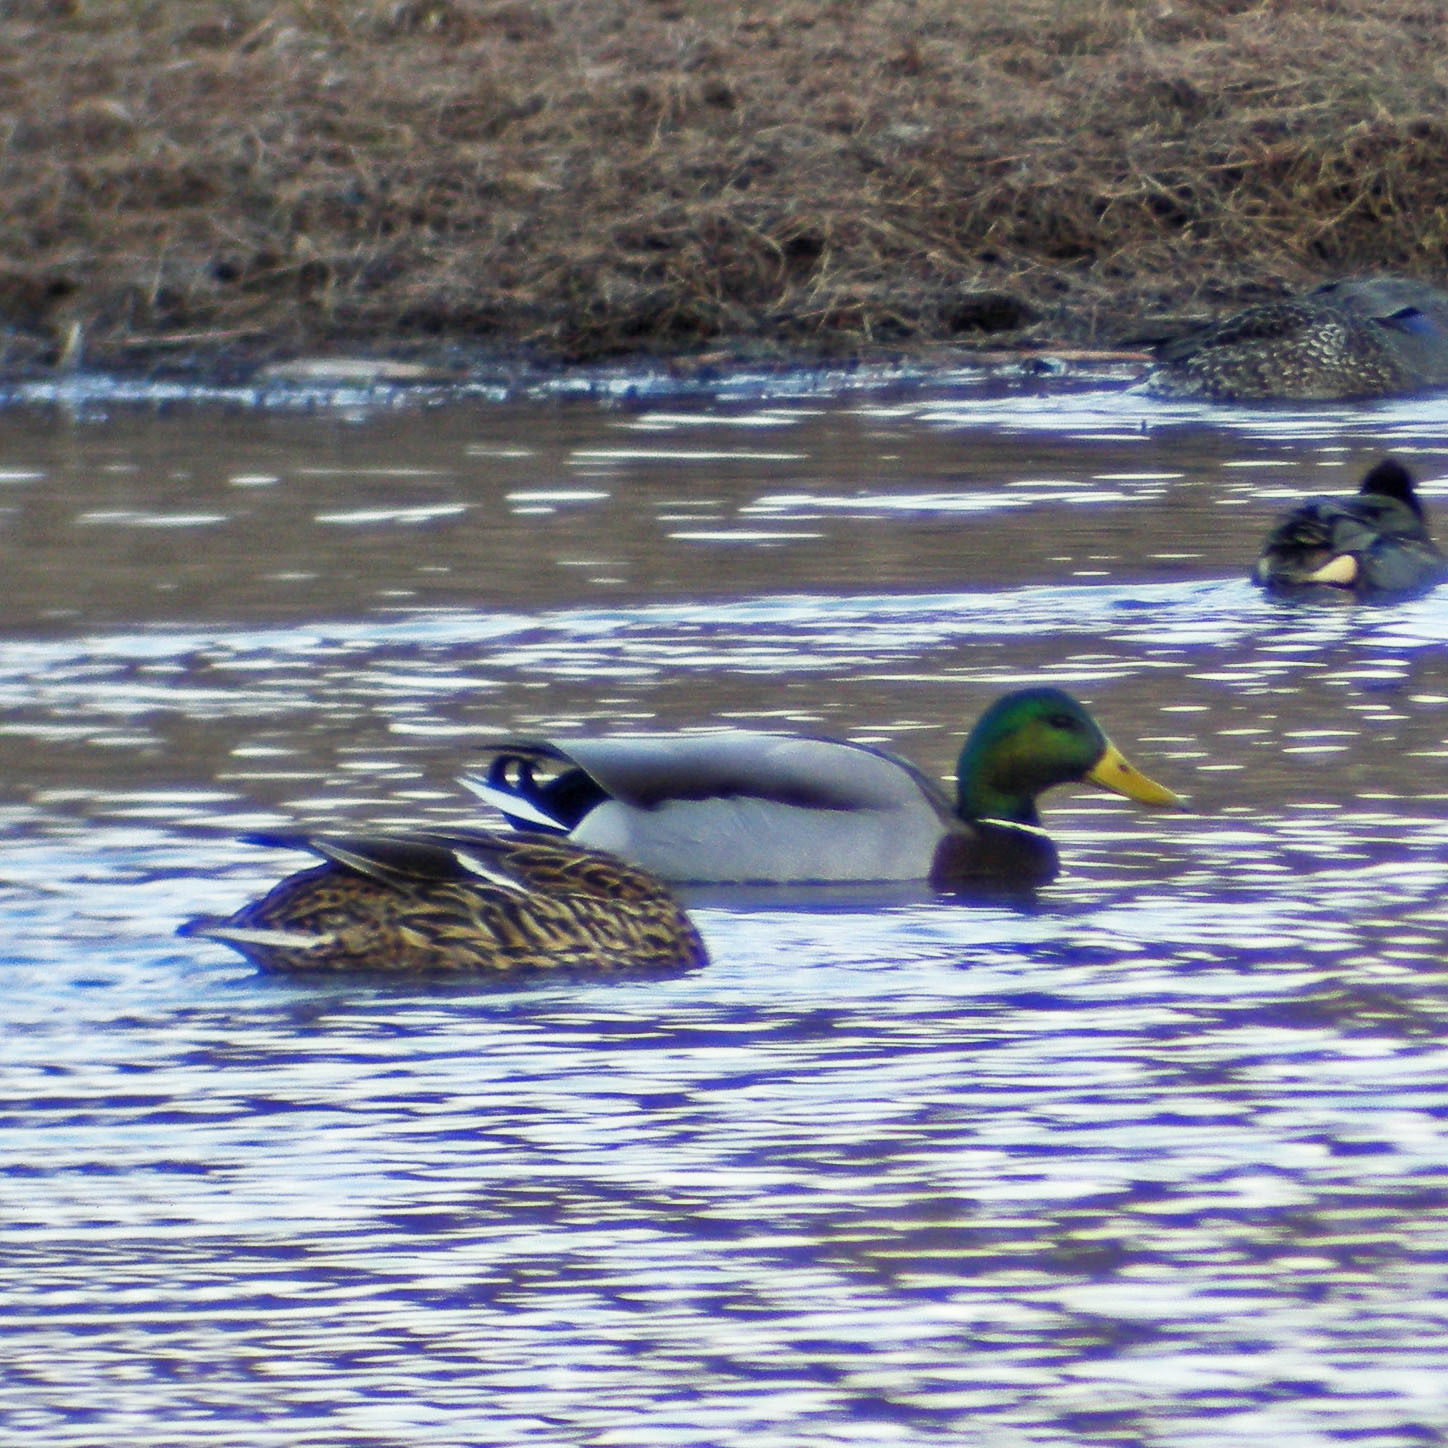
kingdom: Animalia
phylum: Chordata
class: Aves
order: Anseriformes
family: Anatidae
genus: Anas
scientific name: Anas platyrhynchos
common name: Mallard
